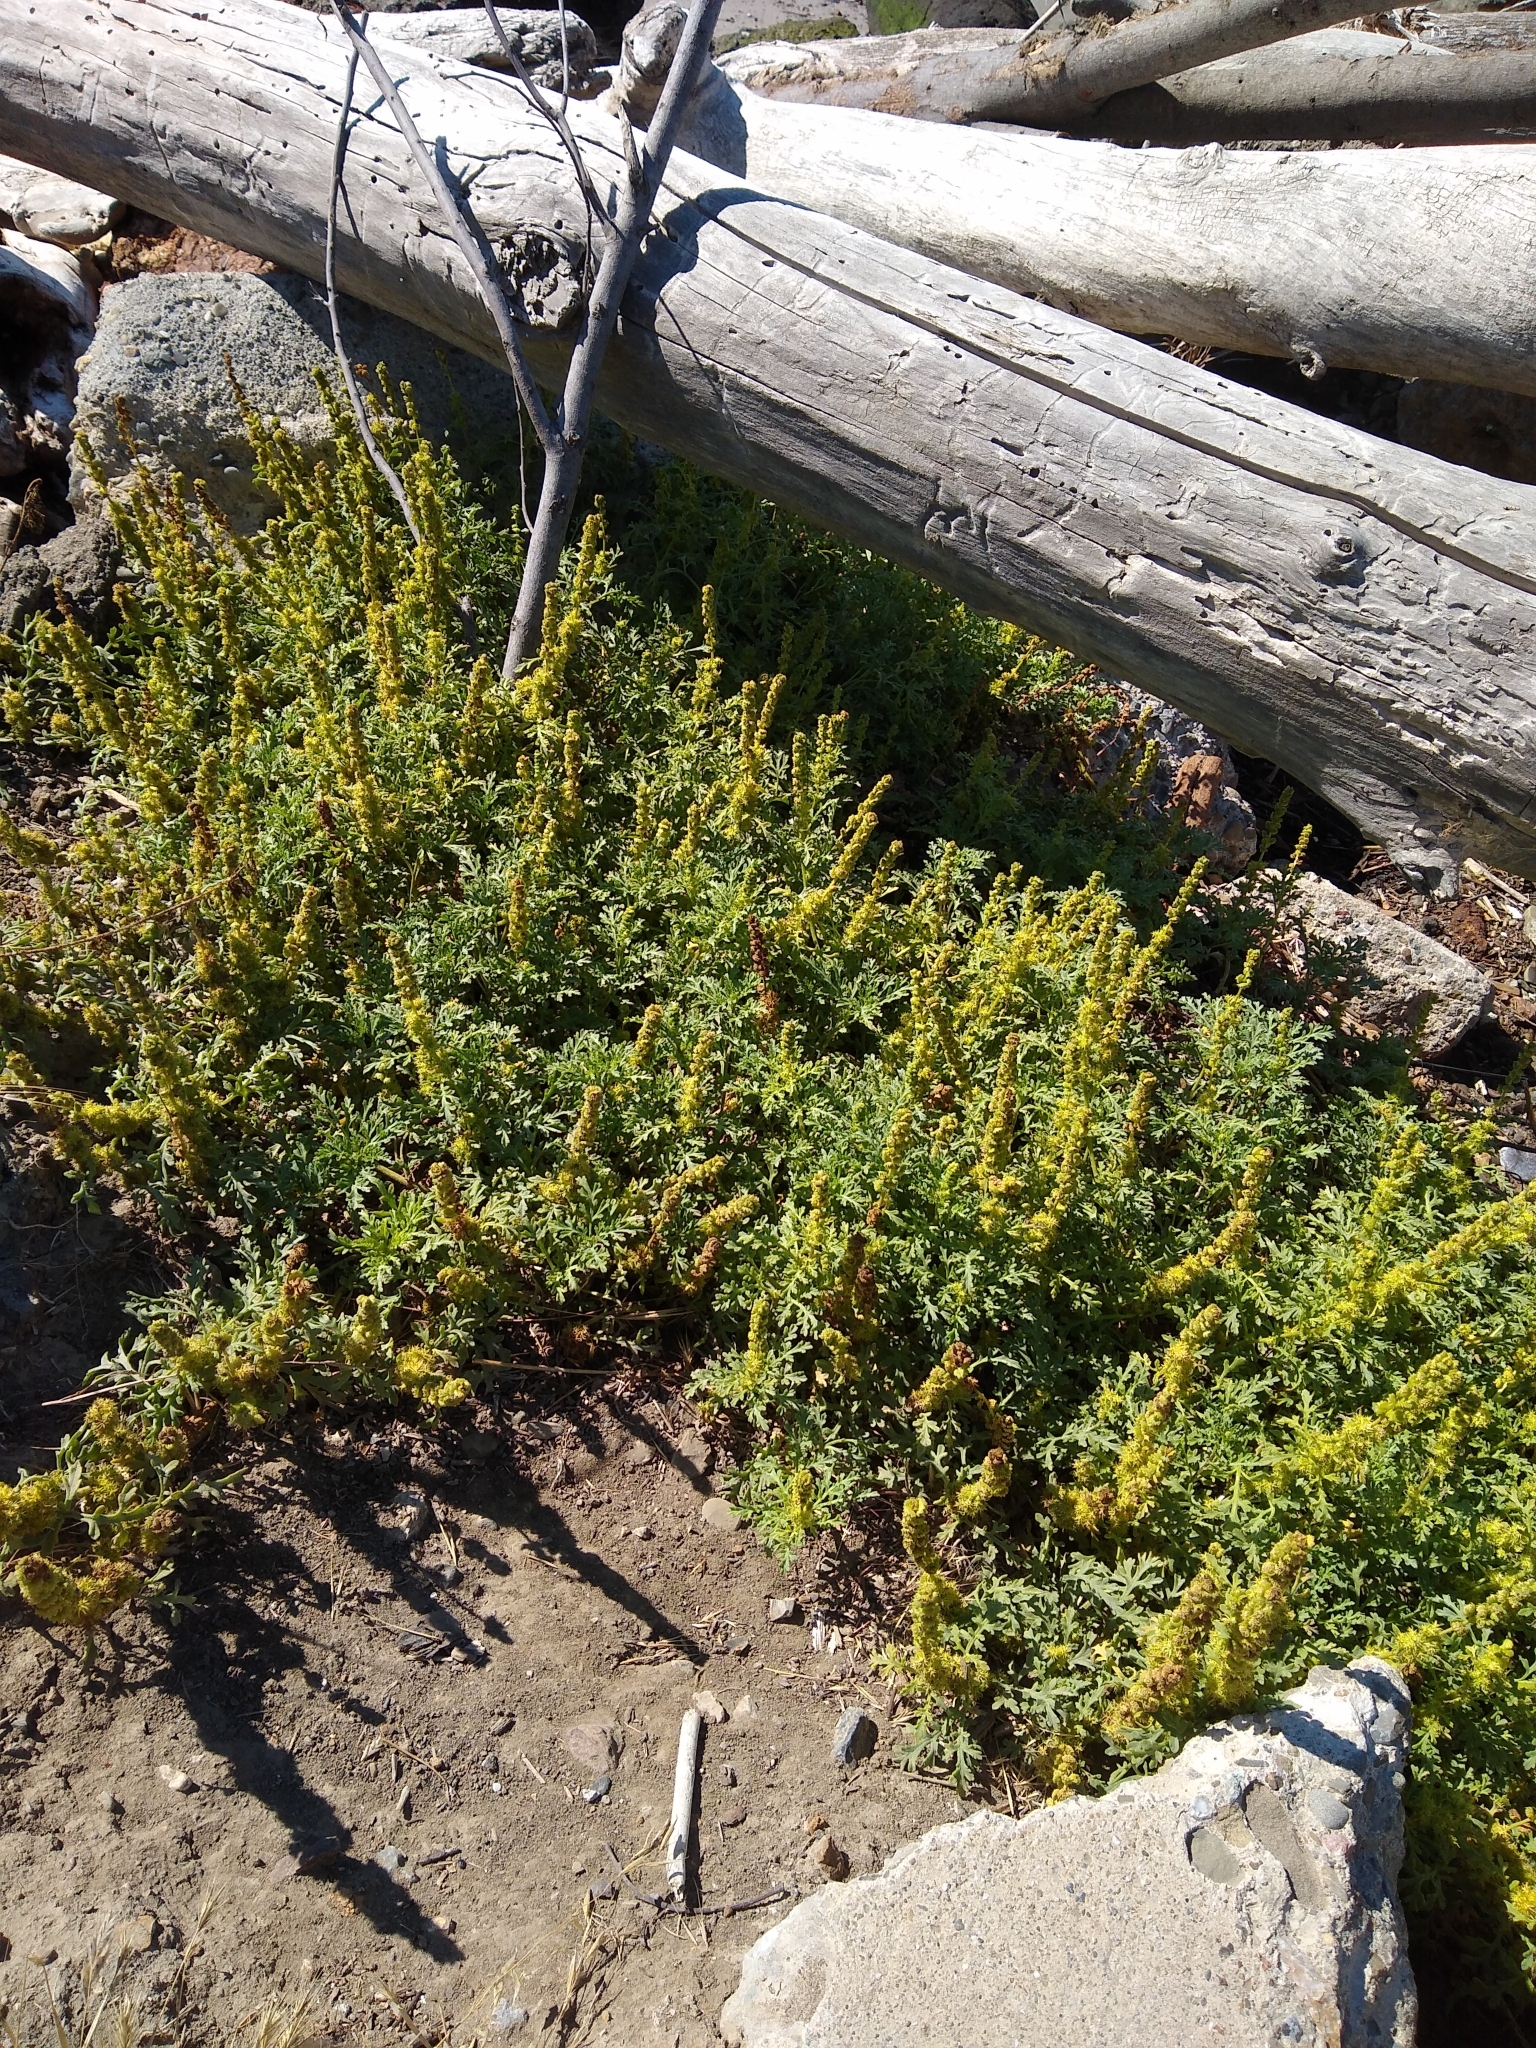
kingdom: Plantae
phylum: Tracheophyta
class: Magnoliopsida
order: Asterales
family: Asteraceae
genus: Ambrosia
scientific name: Ambrosia chamissonis
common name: Beachbur
